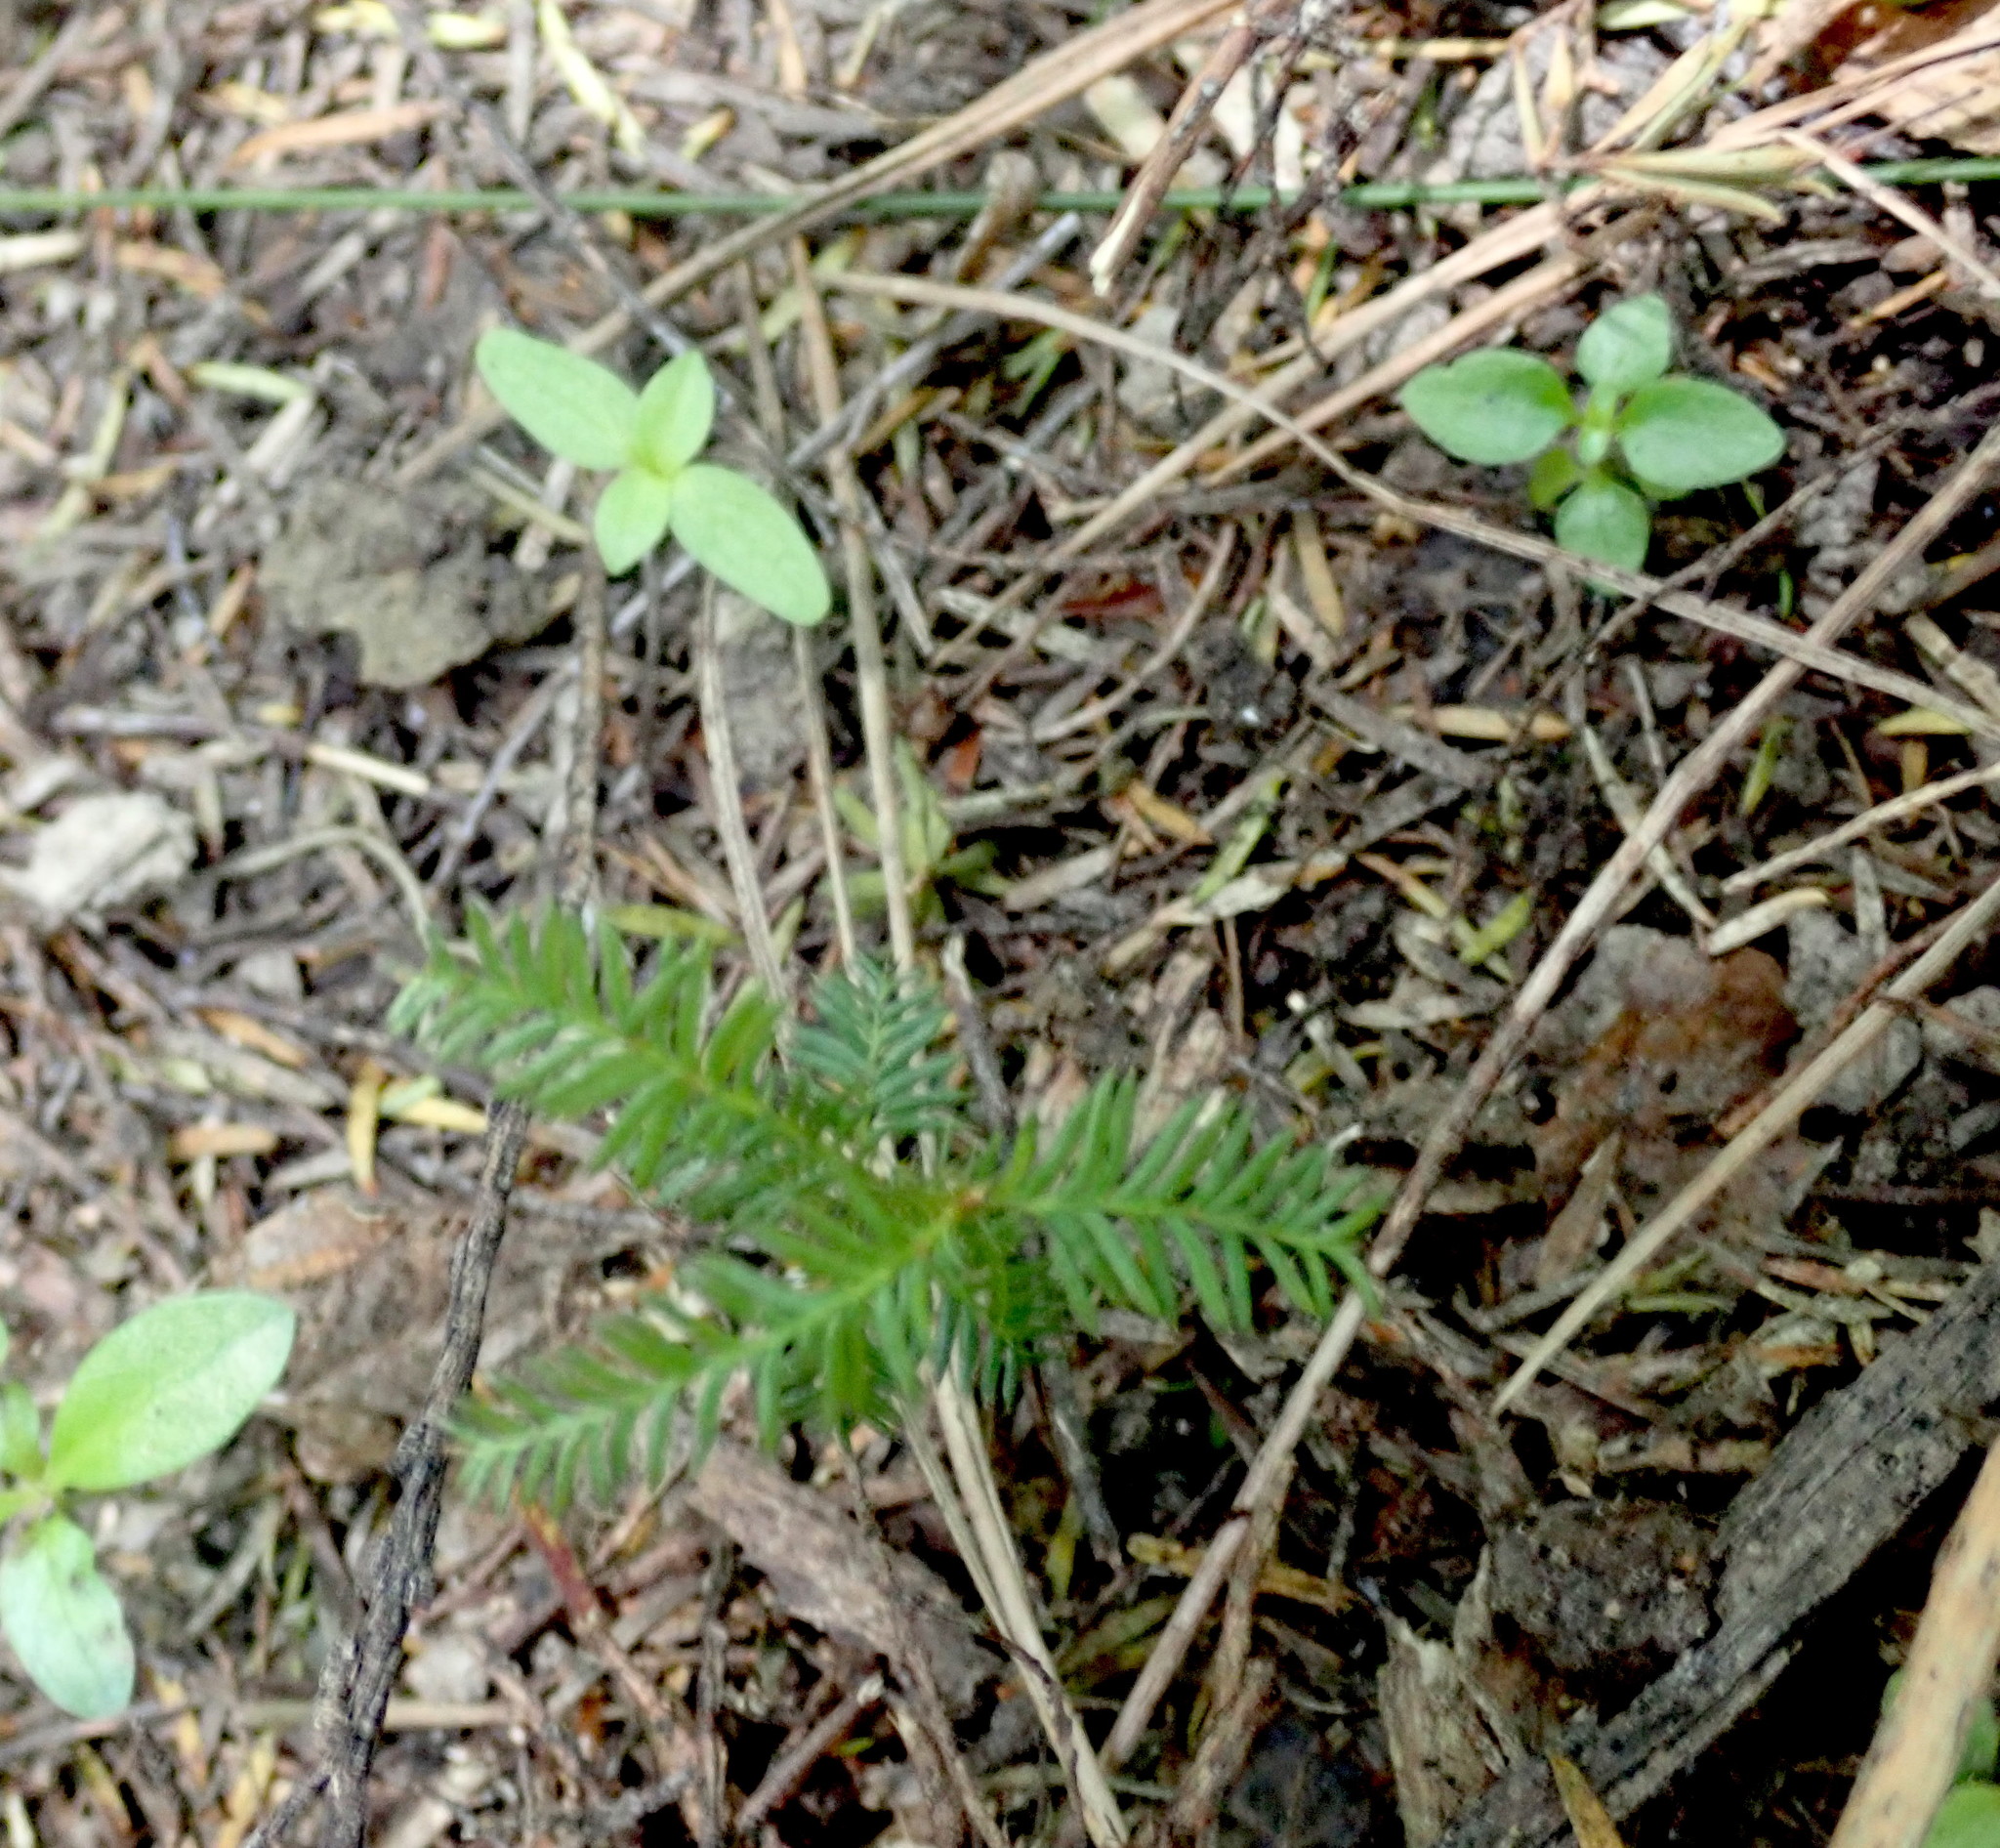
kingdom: Plantae
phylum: Tracheophyta
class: Pinopsida
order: Pinales
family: Podocarpaceae
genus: Dacrycarpus
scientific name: Dacrycarpus dacrydioides
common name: White pine
